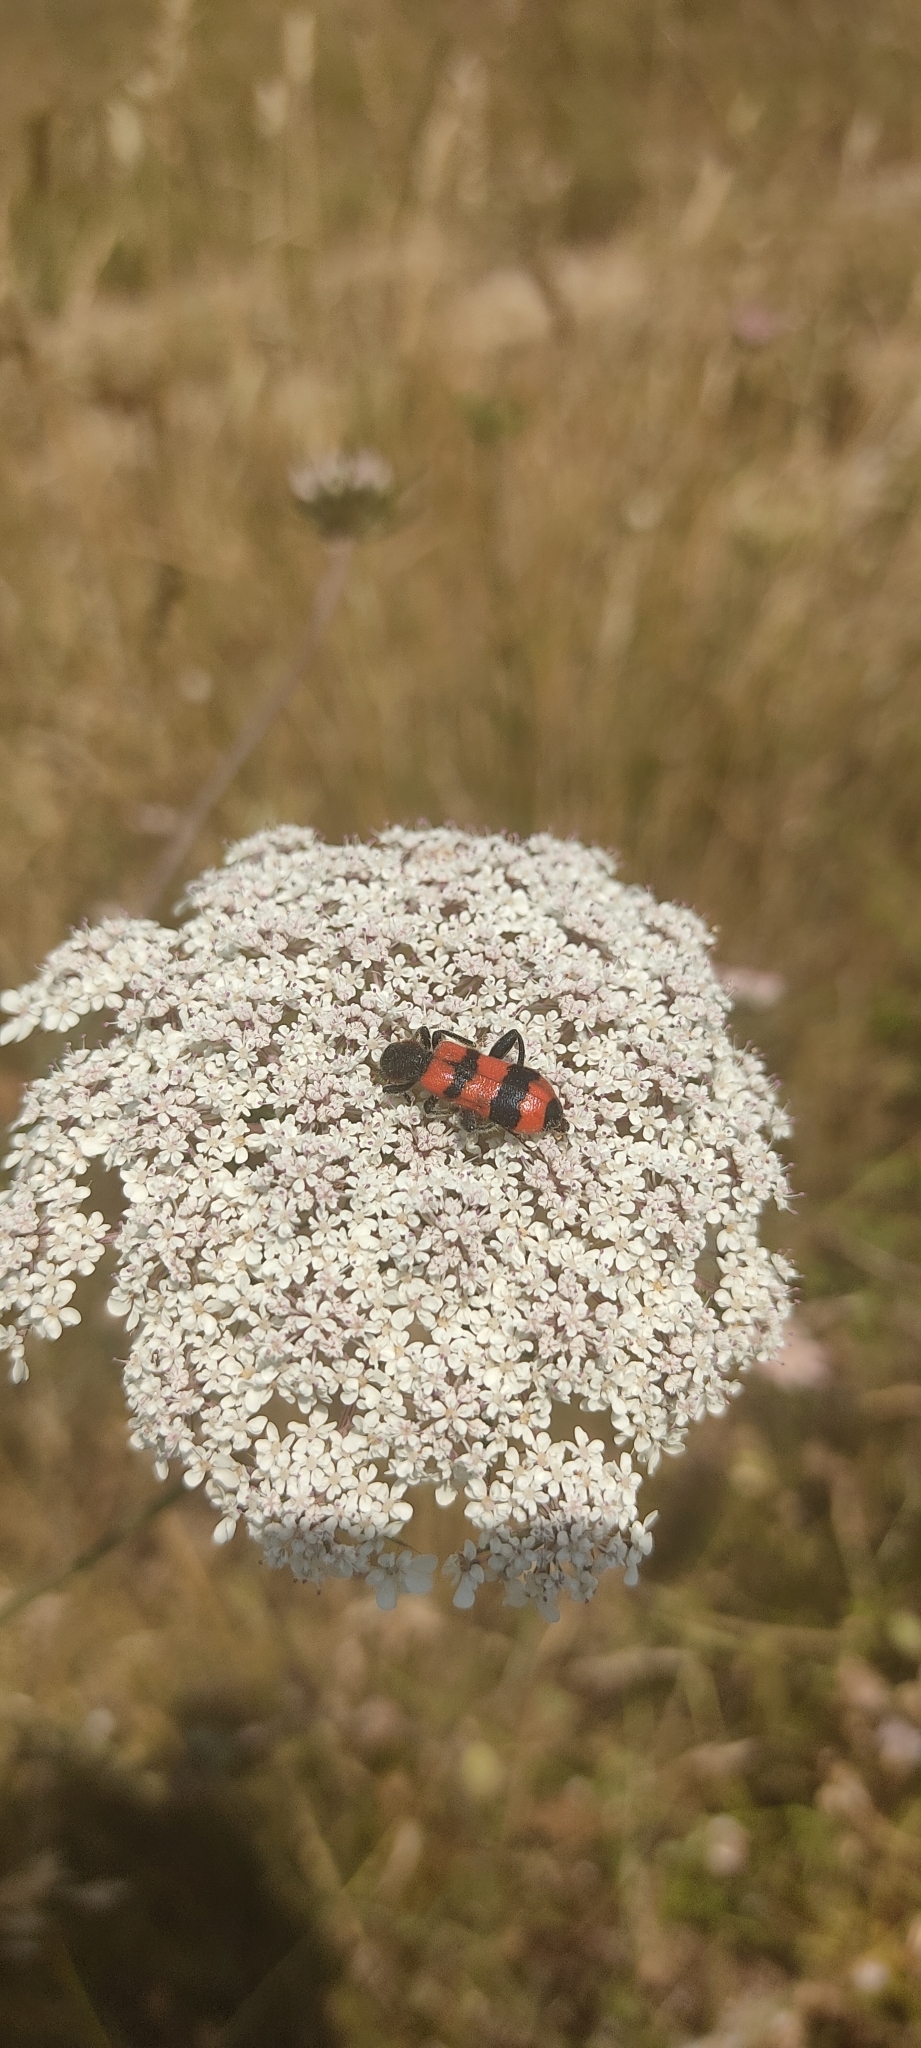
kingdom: Animalia
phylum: Arthropoda
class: Insecta
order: Coleoptera
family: Cleridae
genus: Trichodes
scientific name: Trichodes apiarius
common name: Bee-eating beetle
